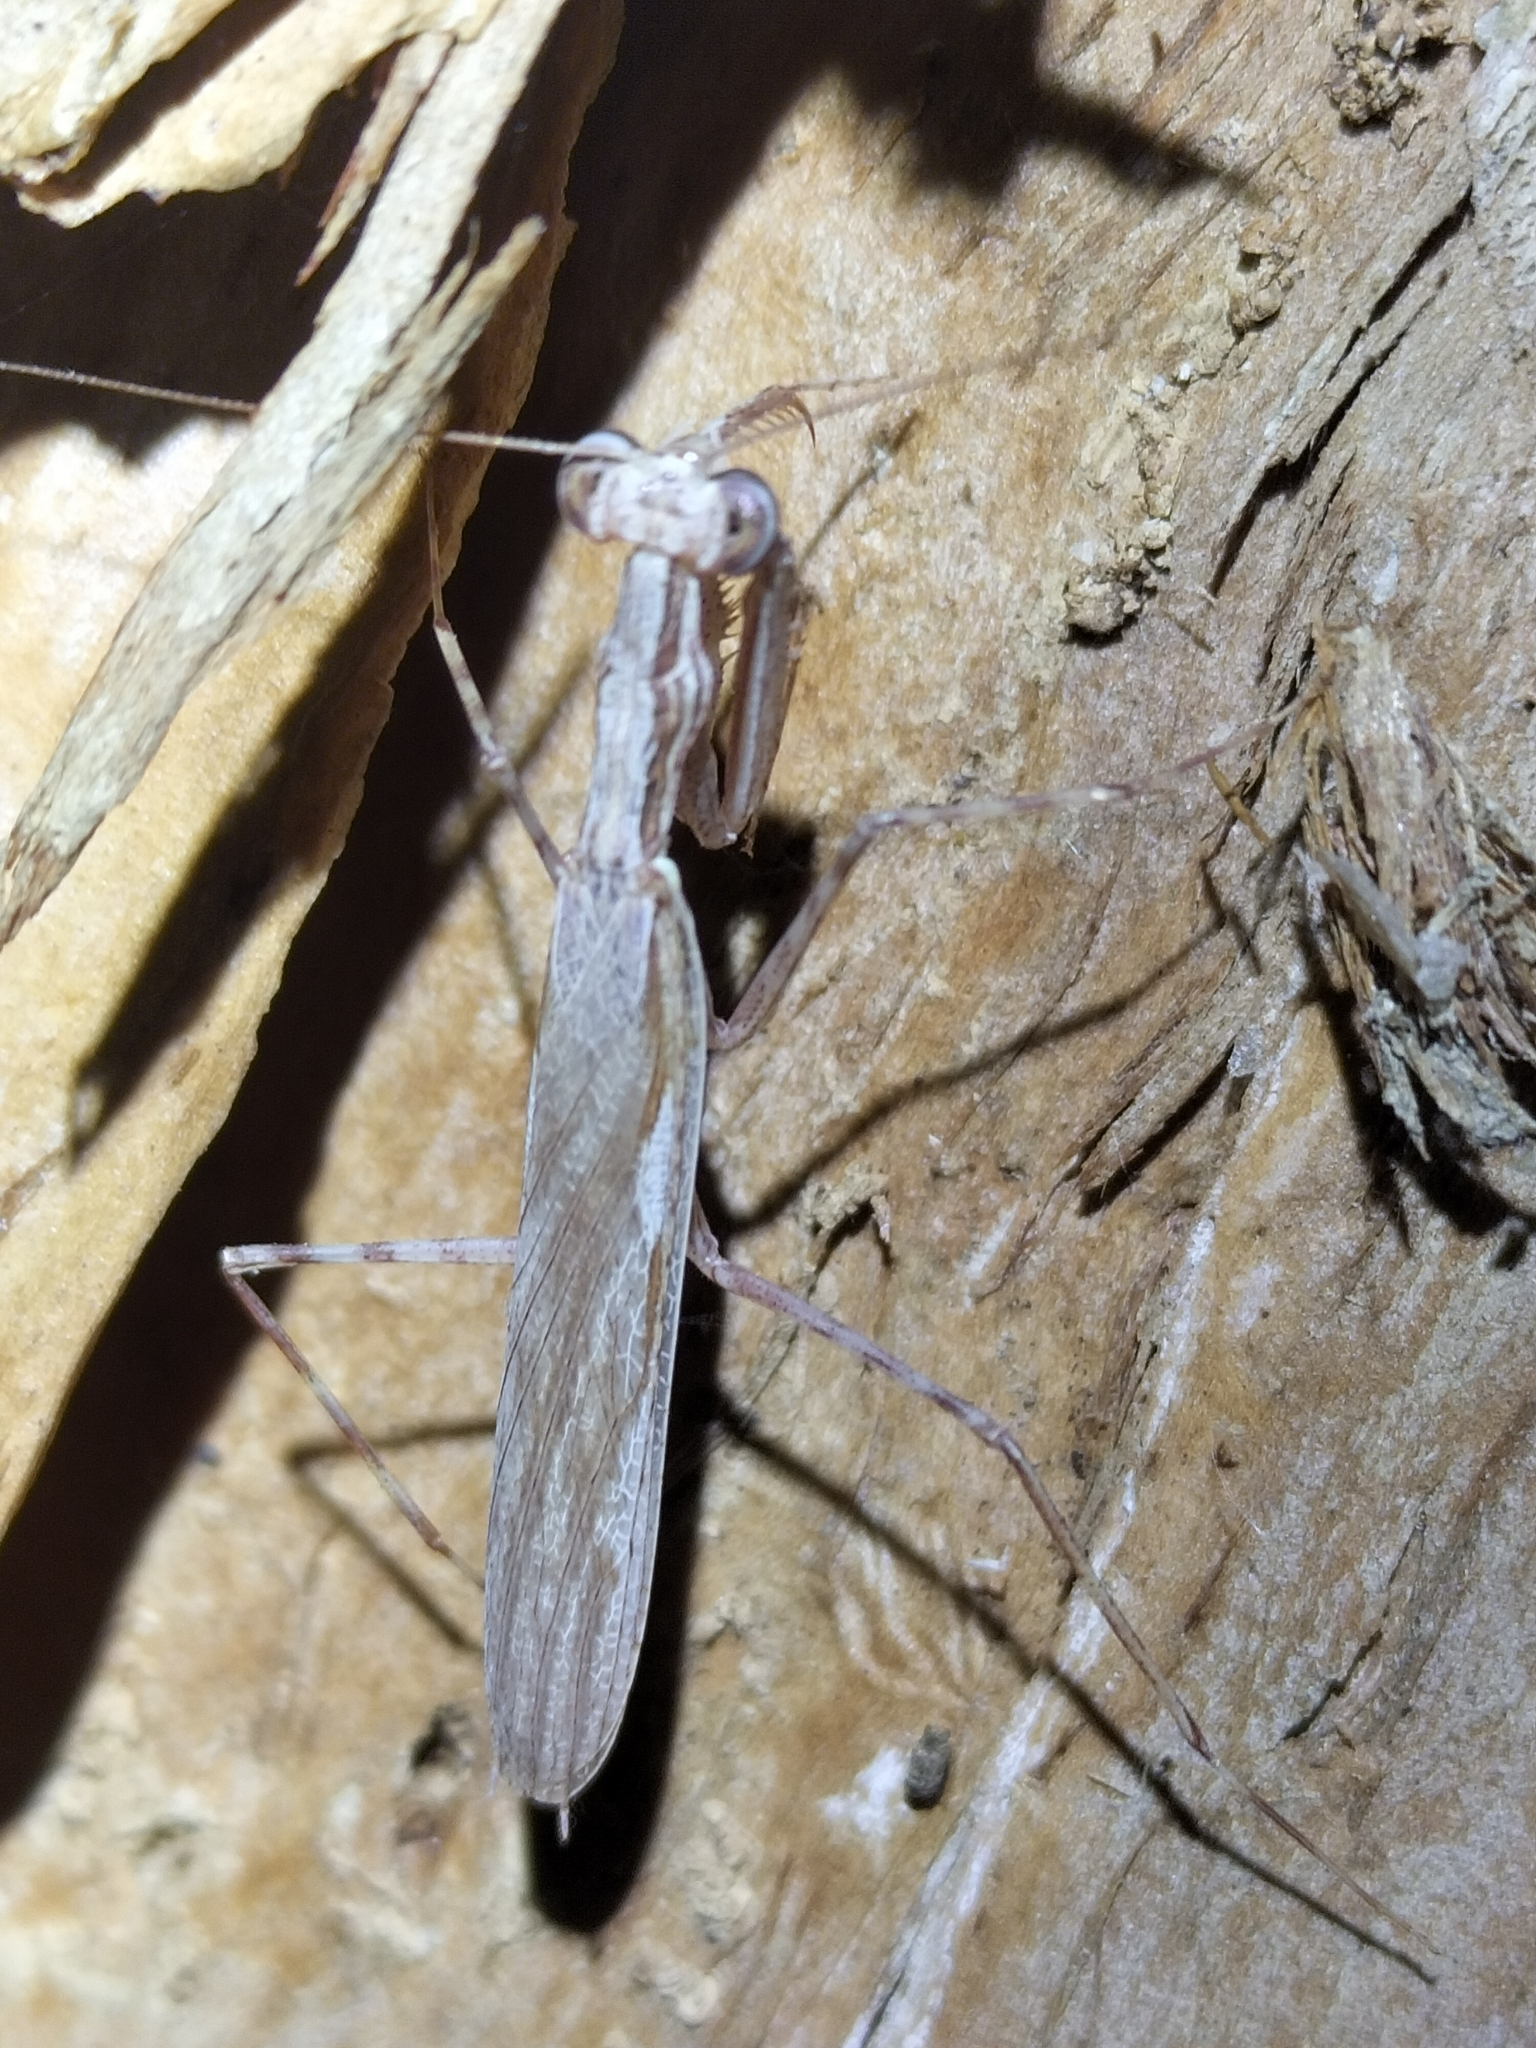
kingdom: Animalia
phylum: Arthropoda
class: Insecta
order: Mantodea
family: Nanomantidae
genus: Ima
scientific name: Ima fusca
